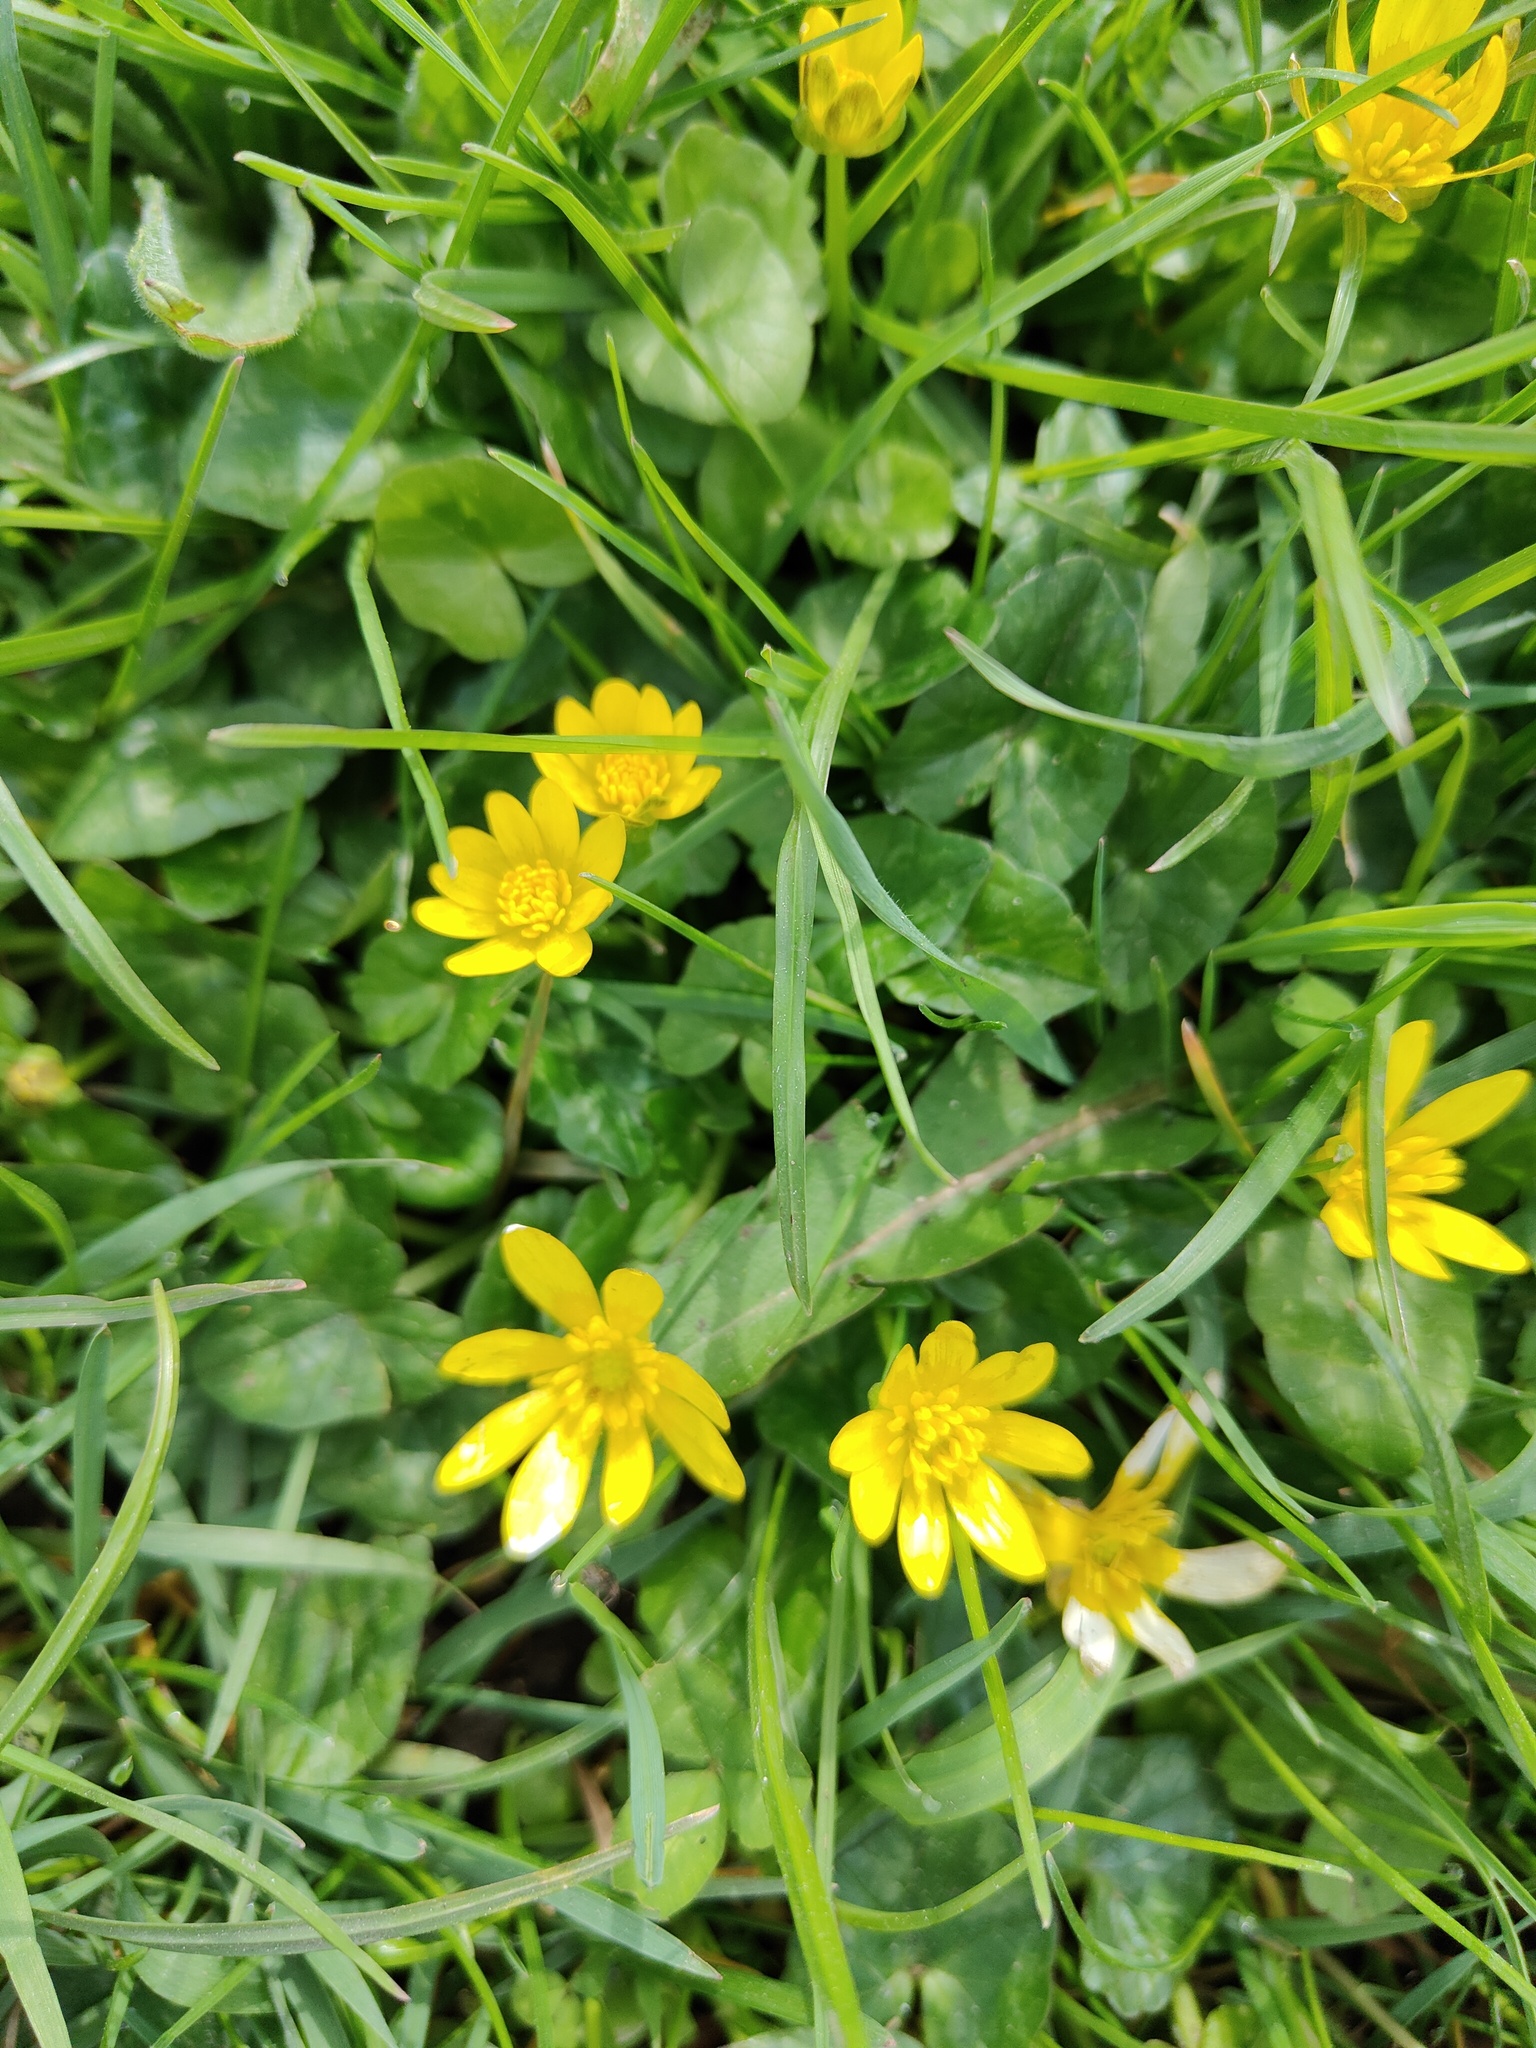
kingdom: Plantae
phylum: Tracheophyta
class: Magnoliopsida
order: Ranunculales
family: Ranunculaceae
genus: Ficaria
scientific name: Ficaria verna
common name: Lesser celandine
